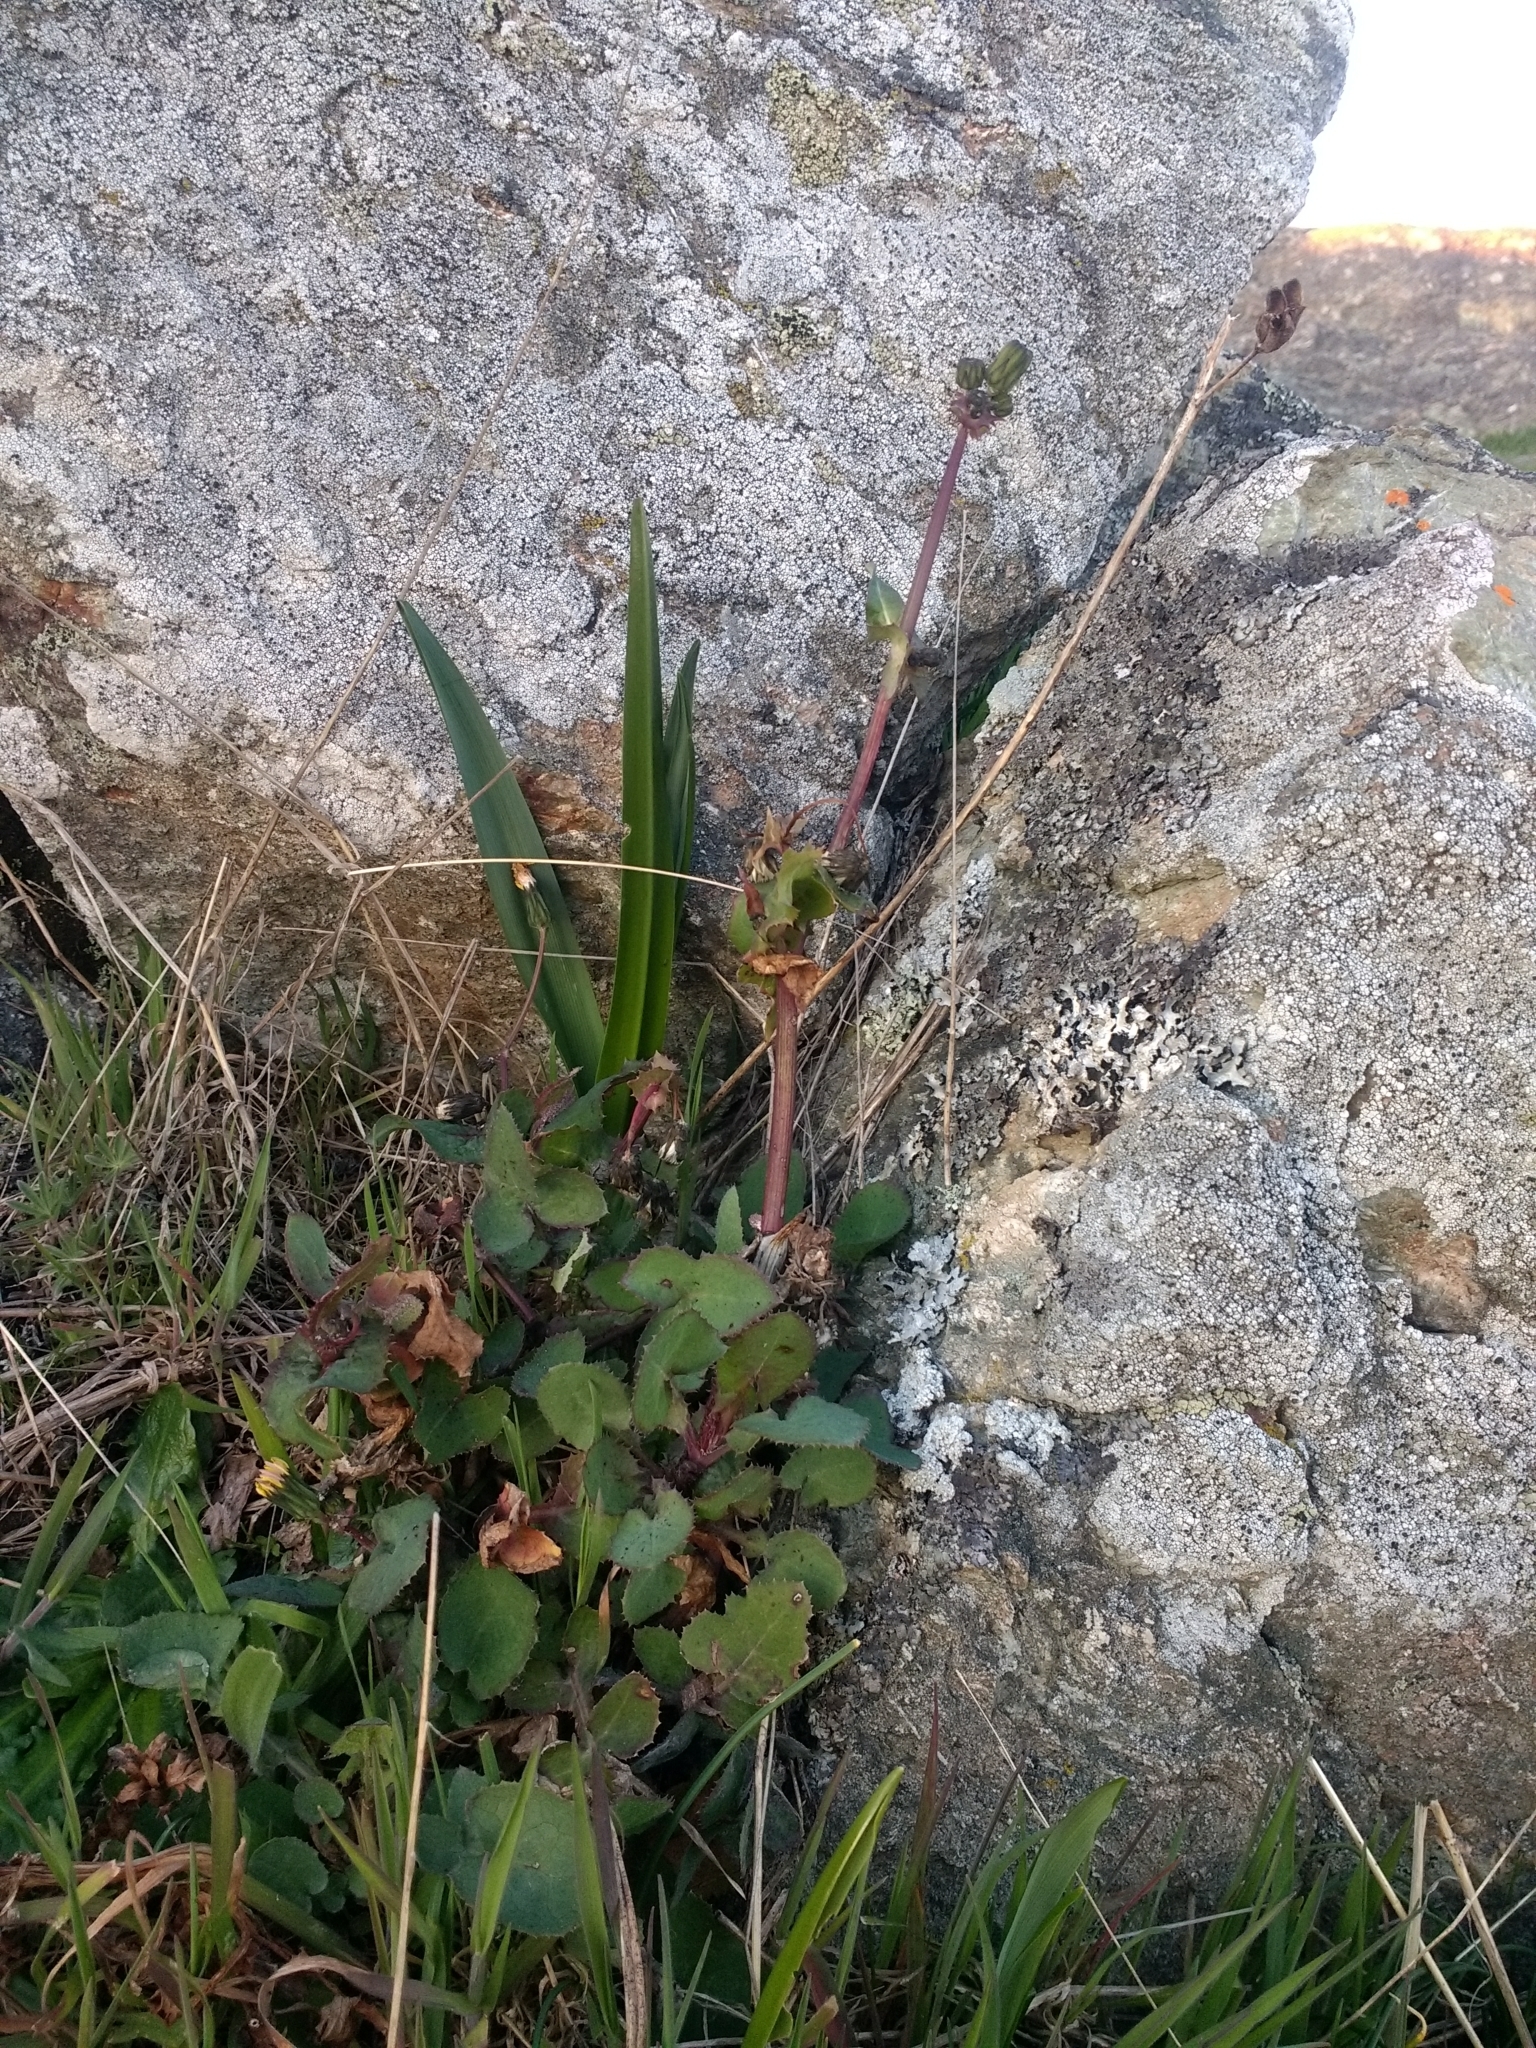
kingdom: Plantae
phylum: Tracheophyta
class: Magnoliopsida
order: Asterales
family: Asteraceae
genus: Sonchus
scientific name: Sonchus oleraceus
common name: Common sowthistle
